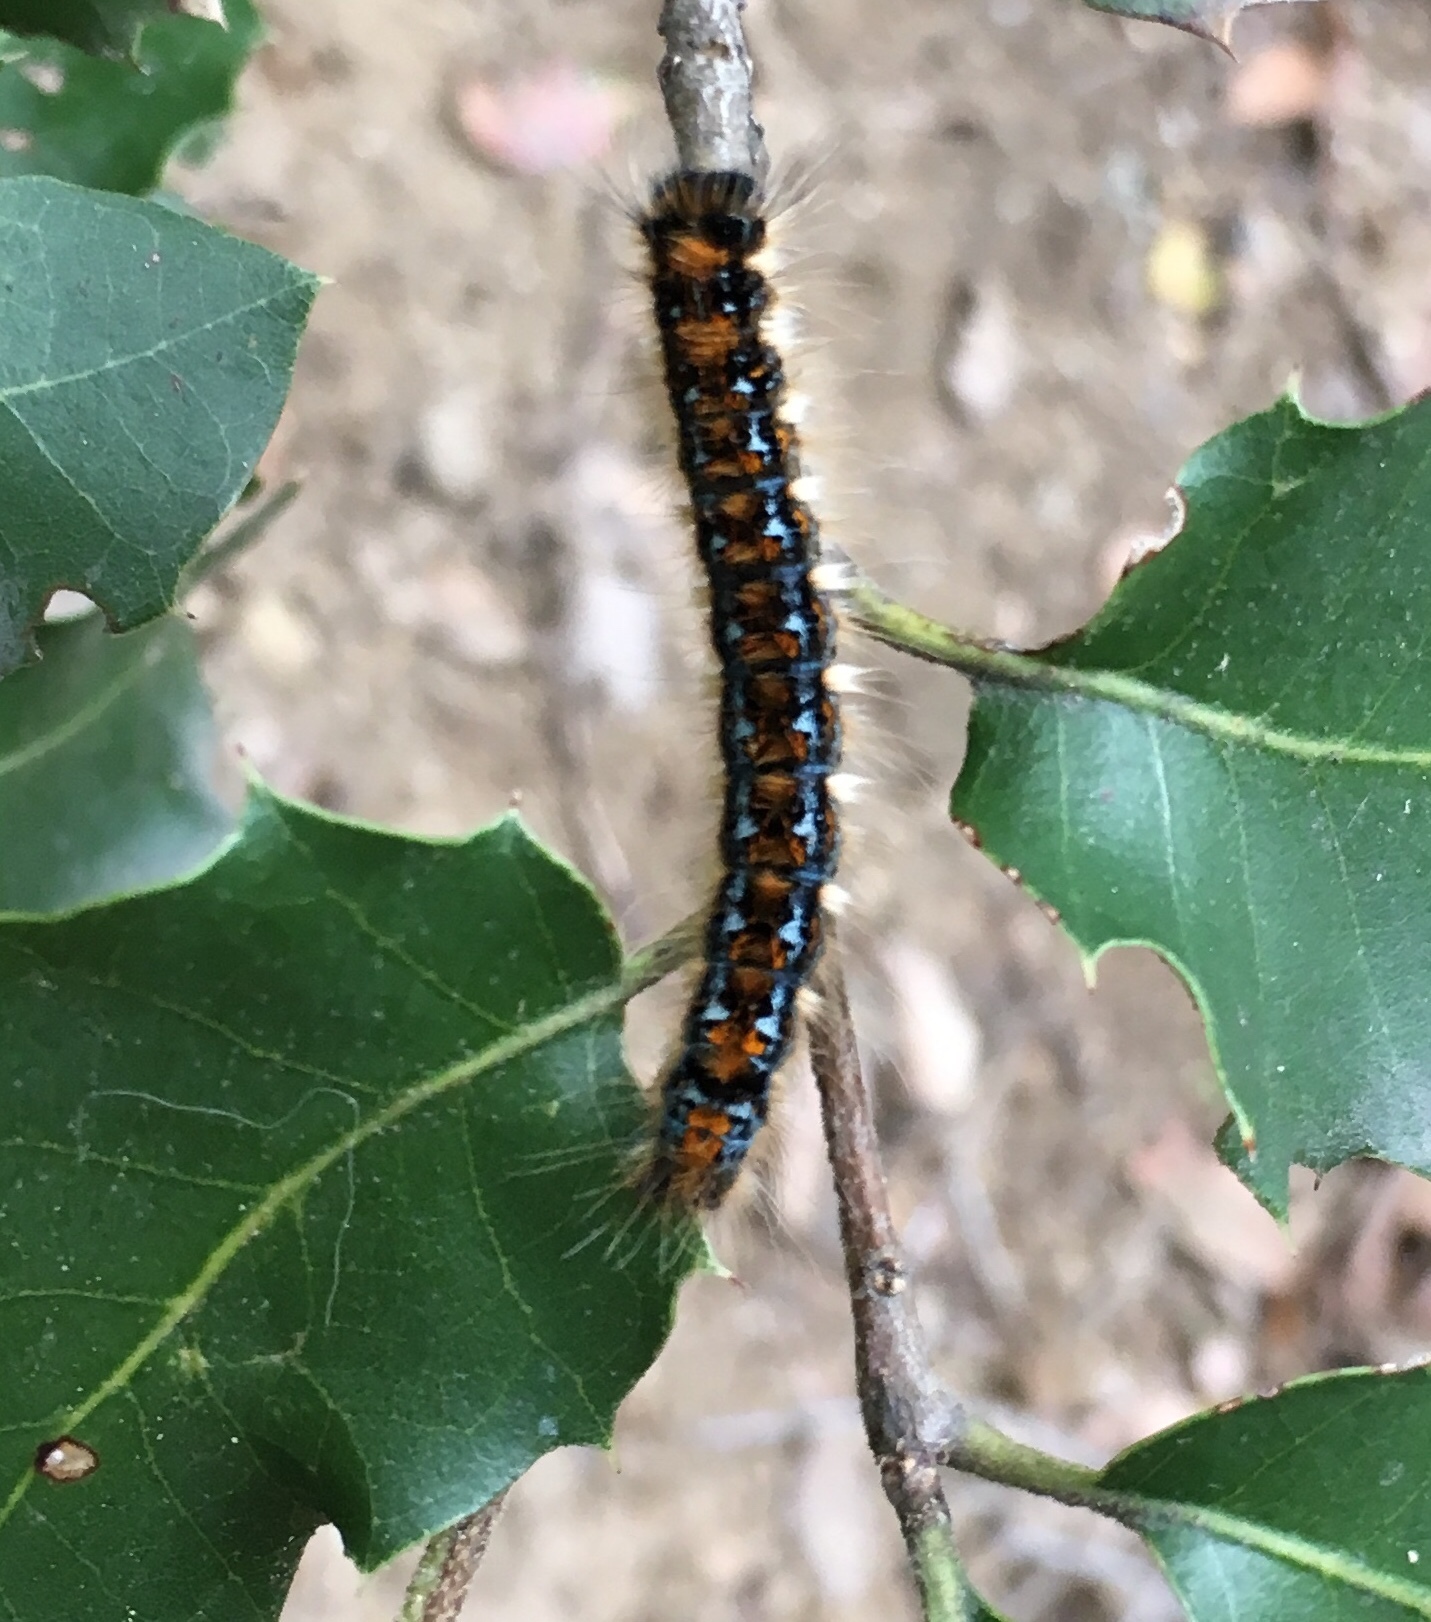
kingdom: Animalia
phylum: Arthropoda
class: Insecta
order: Lepidoptera
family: Lasiocampidae
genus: Malacosoma
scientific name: Malacosoma constricta
